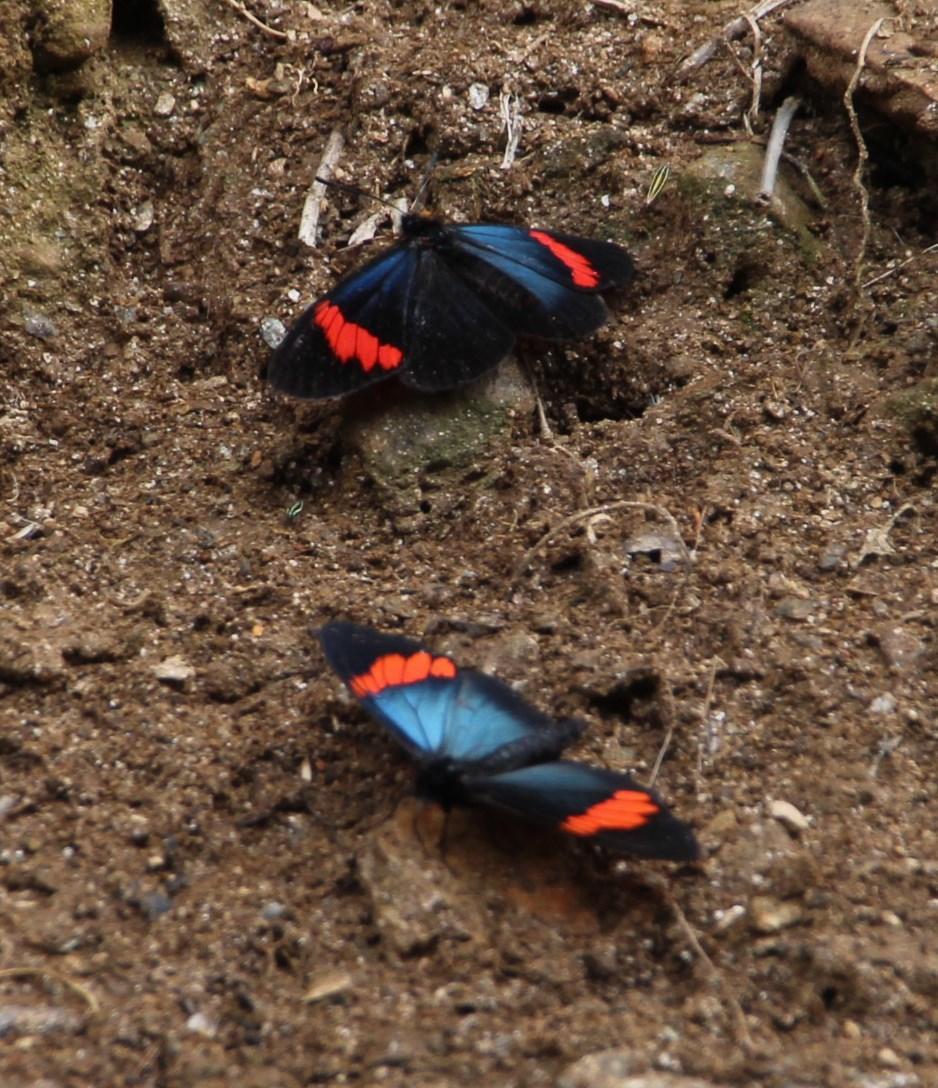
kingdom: Animalia
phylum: Arthropoda
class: Insecta
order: Lepidoptera
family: Nymphalidae
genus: Actinote
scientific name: Actinote
